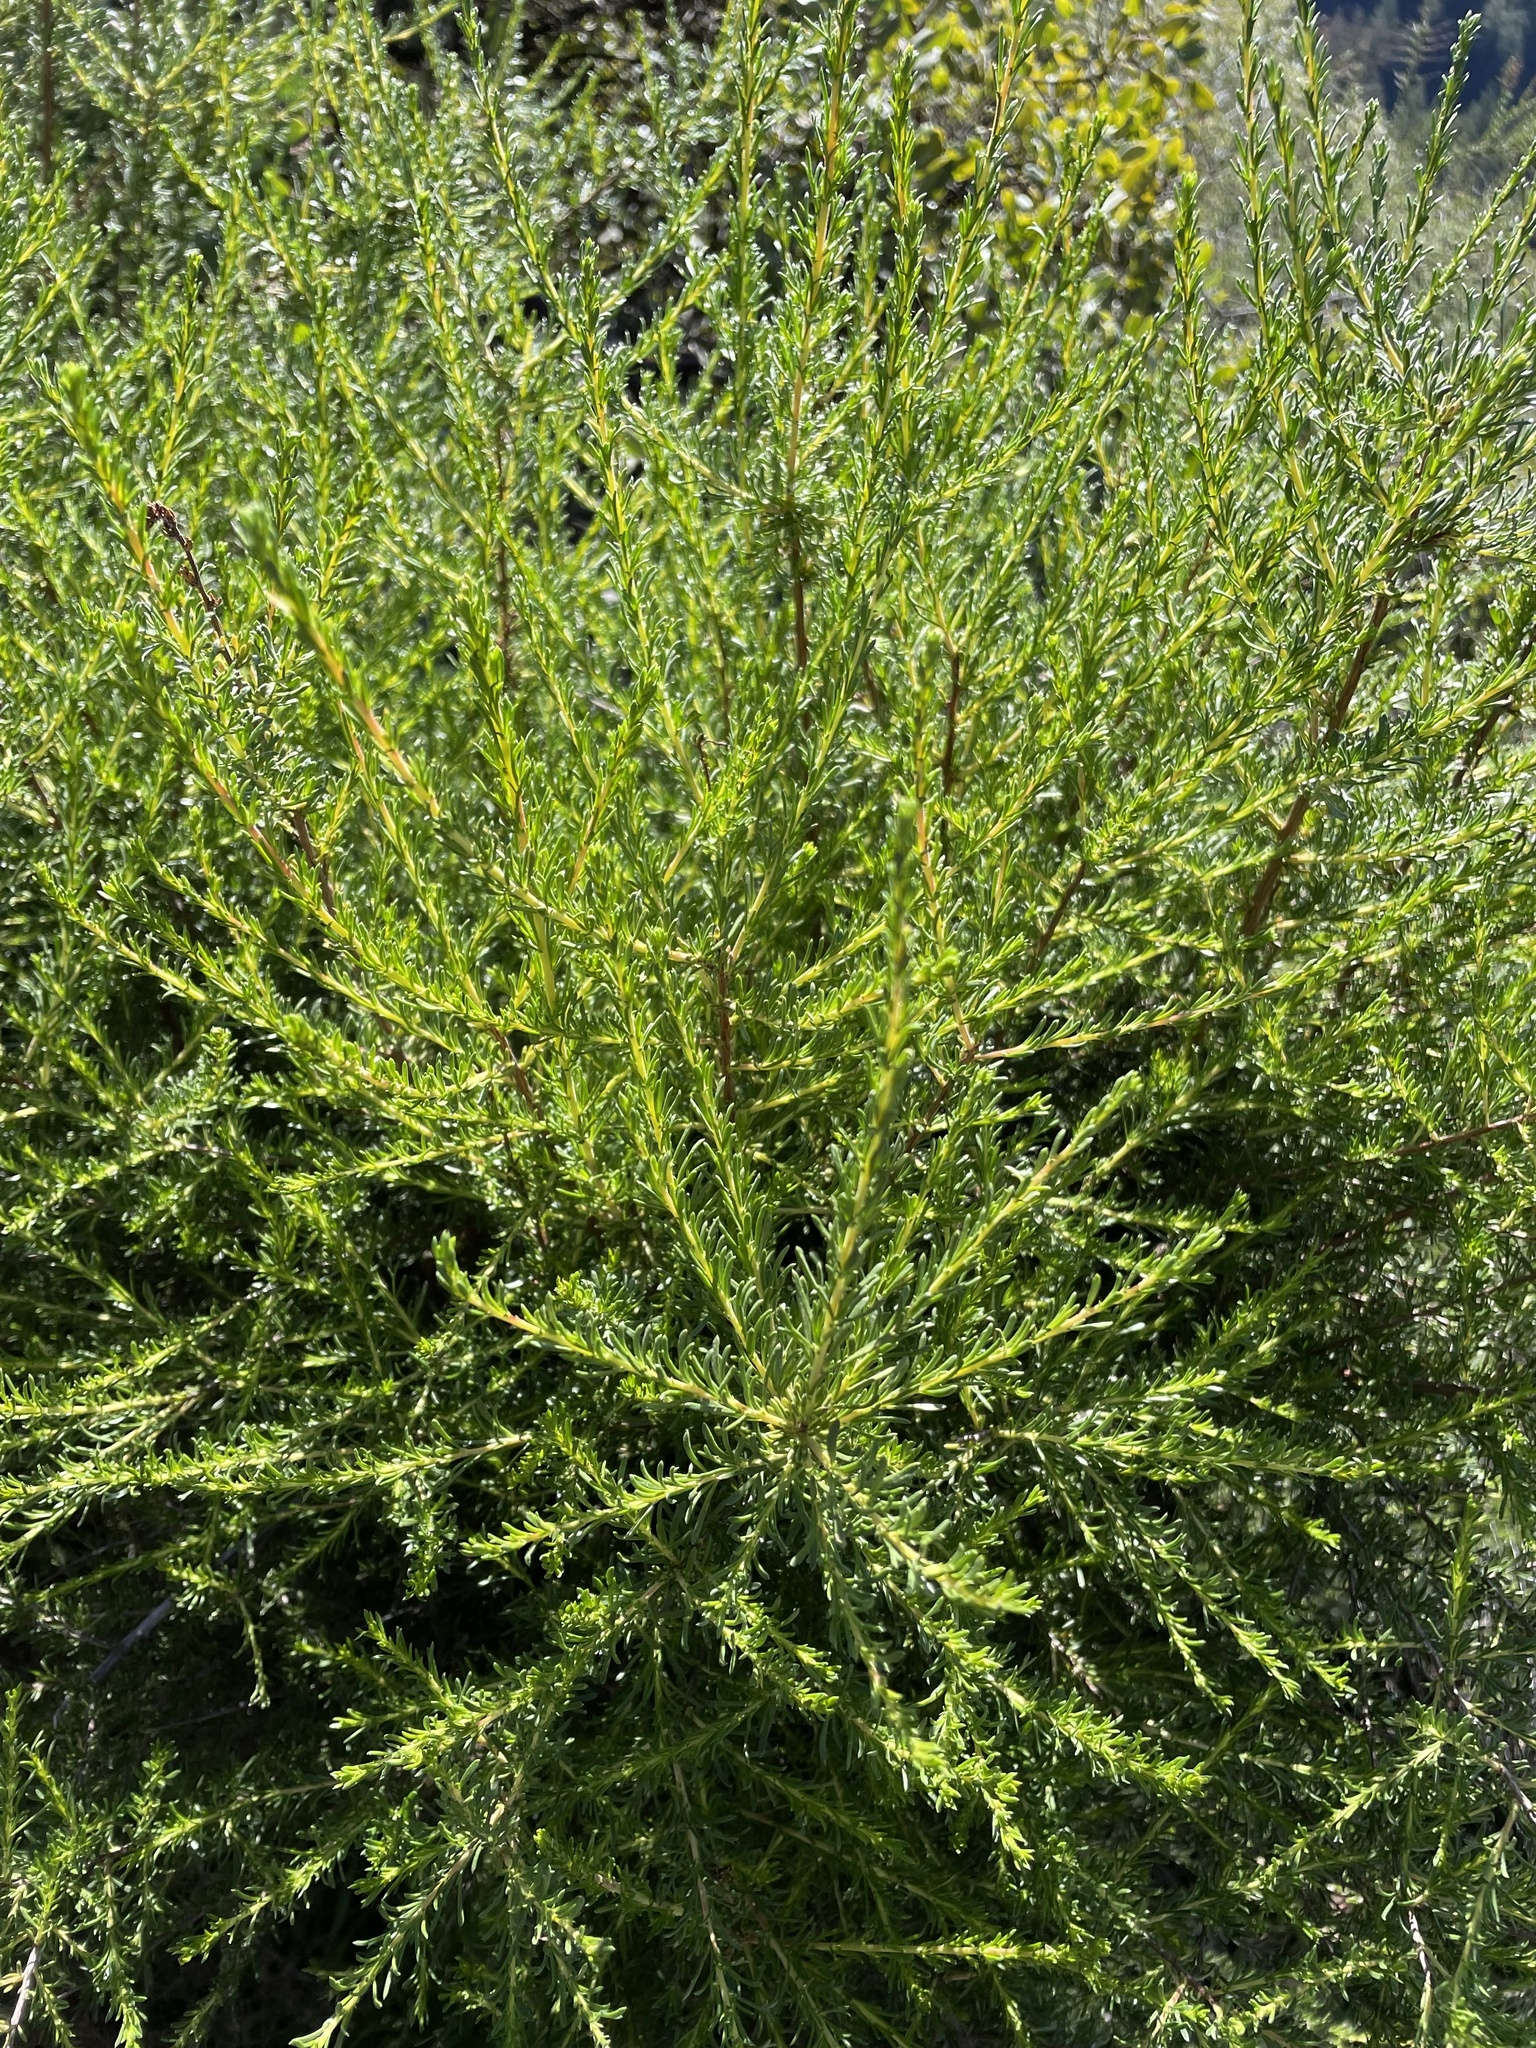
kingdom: Plantae
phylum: Tracheophyta
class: Magnoliopsida
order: Rosales
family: Rosaceae
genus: Adenostoma
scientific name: Adenostoma fasciculatum
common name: Chamise
